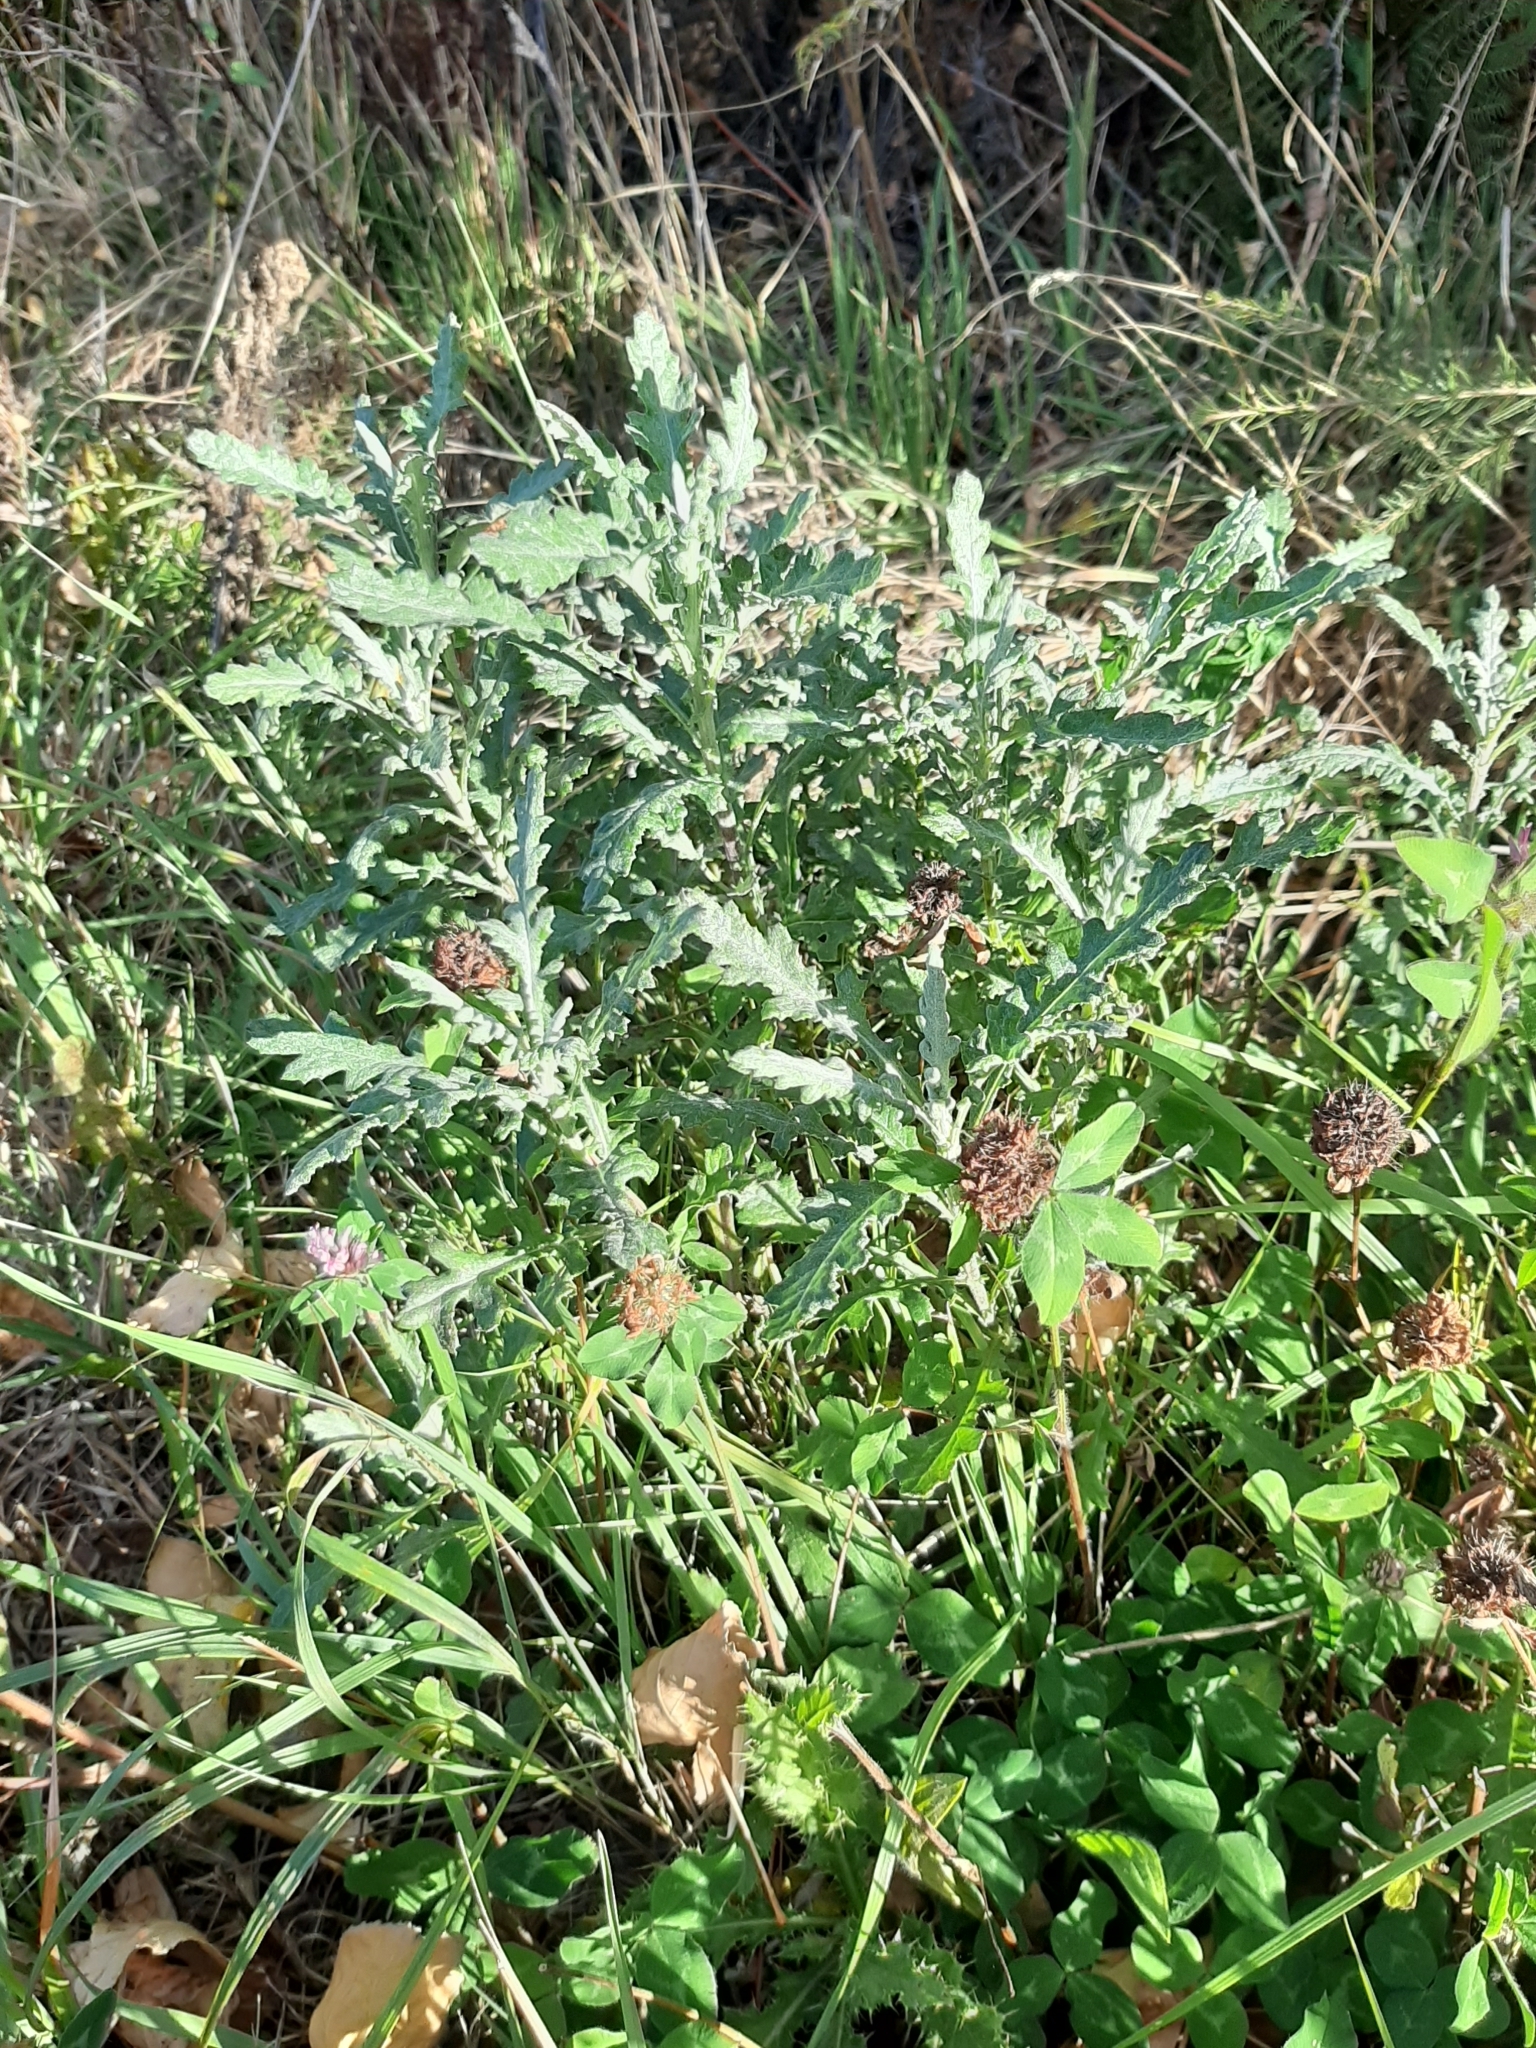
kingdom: Plantae
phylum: Tracheophyta
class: Magnoliopsida
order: Asterales
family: Asteraceae
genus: Senecio
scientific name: Senecio glomeratus
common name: Cutleaf burnweed
